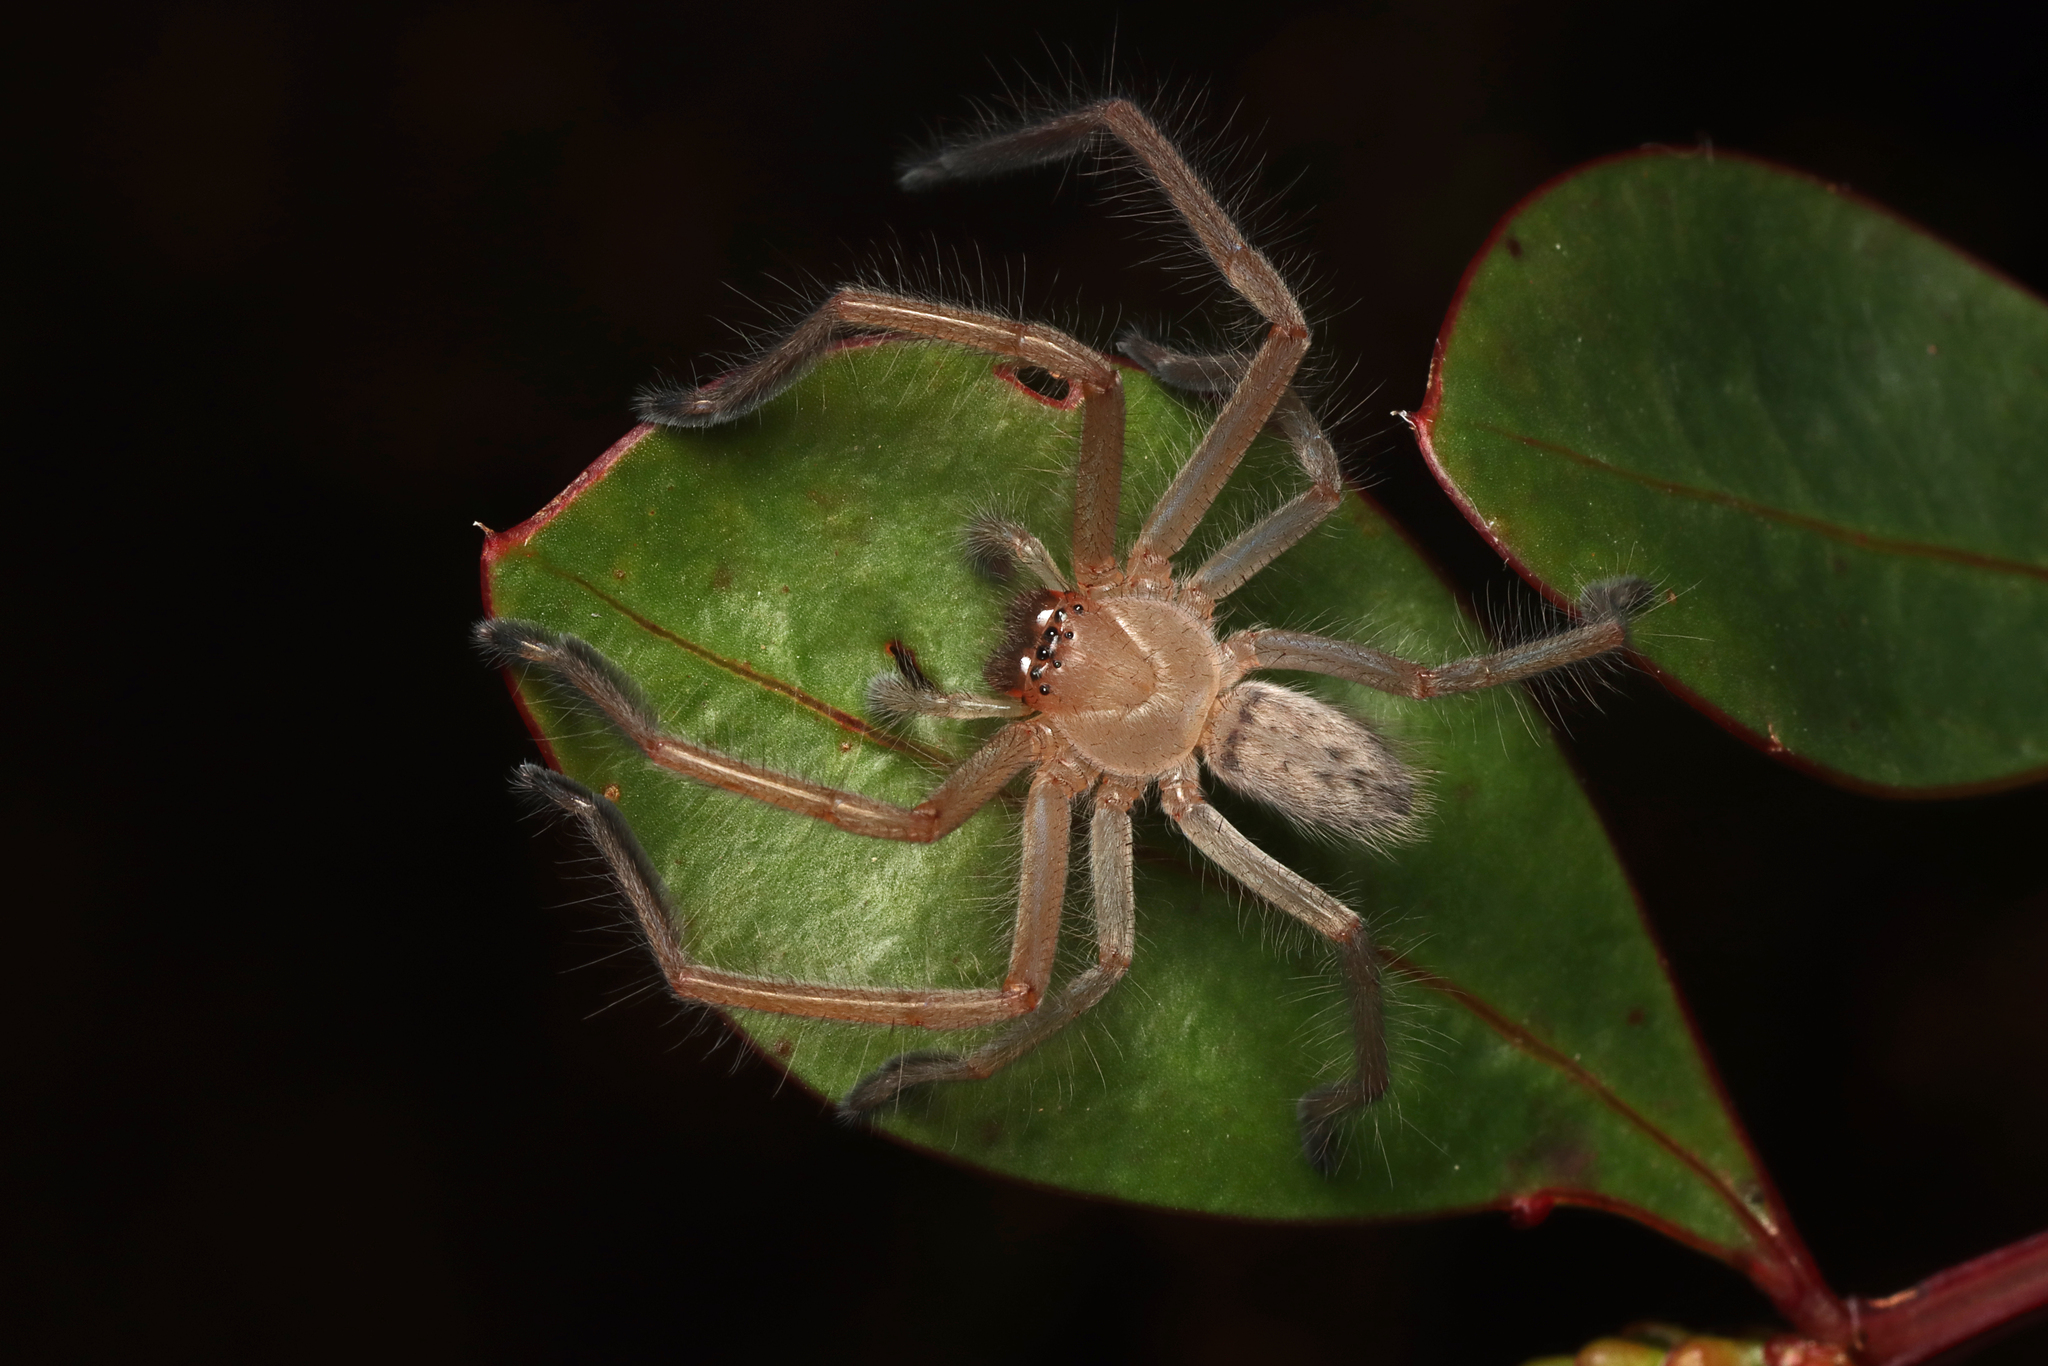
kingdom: Animalia
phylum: Arthropoda
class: Arachnida
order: Araneae
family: Sparassidae
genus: Delena
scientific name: Delena cancerides
